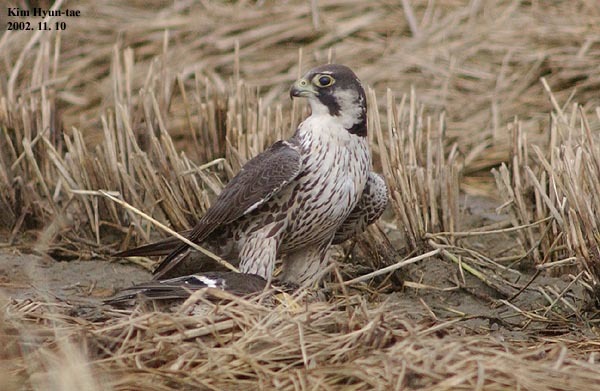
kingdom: Animalia
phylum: Chordata
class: Aves
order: Falconiformes
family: Falconidae
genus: Falco
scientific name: Falco peregrinus
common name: Peregrine falcon
